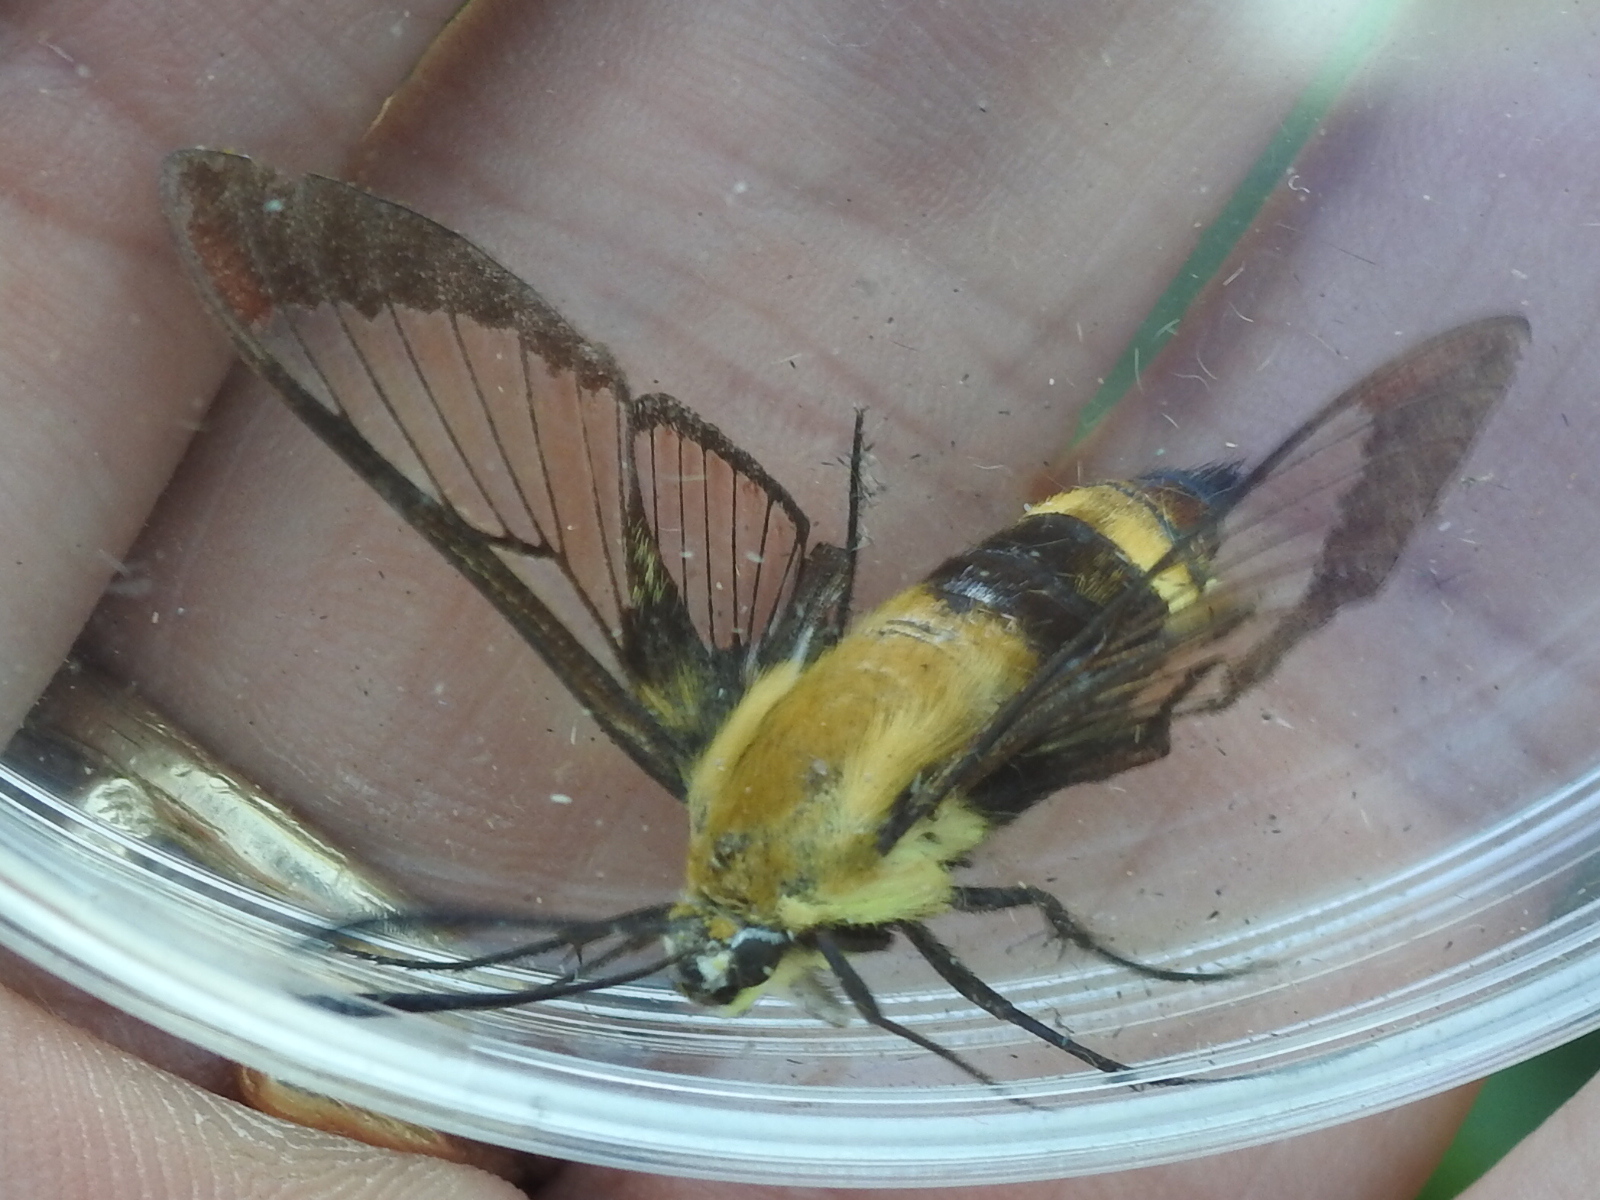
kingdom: Animalia
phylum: Arthropoda
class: Insecta
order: Lepidoptera
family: Sphingidae
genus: Hemaris
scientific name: Hemaris diffinis
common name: Bumblebee moth
